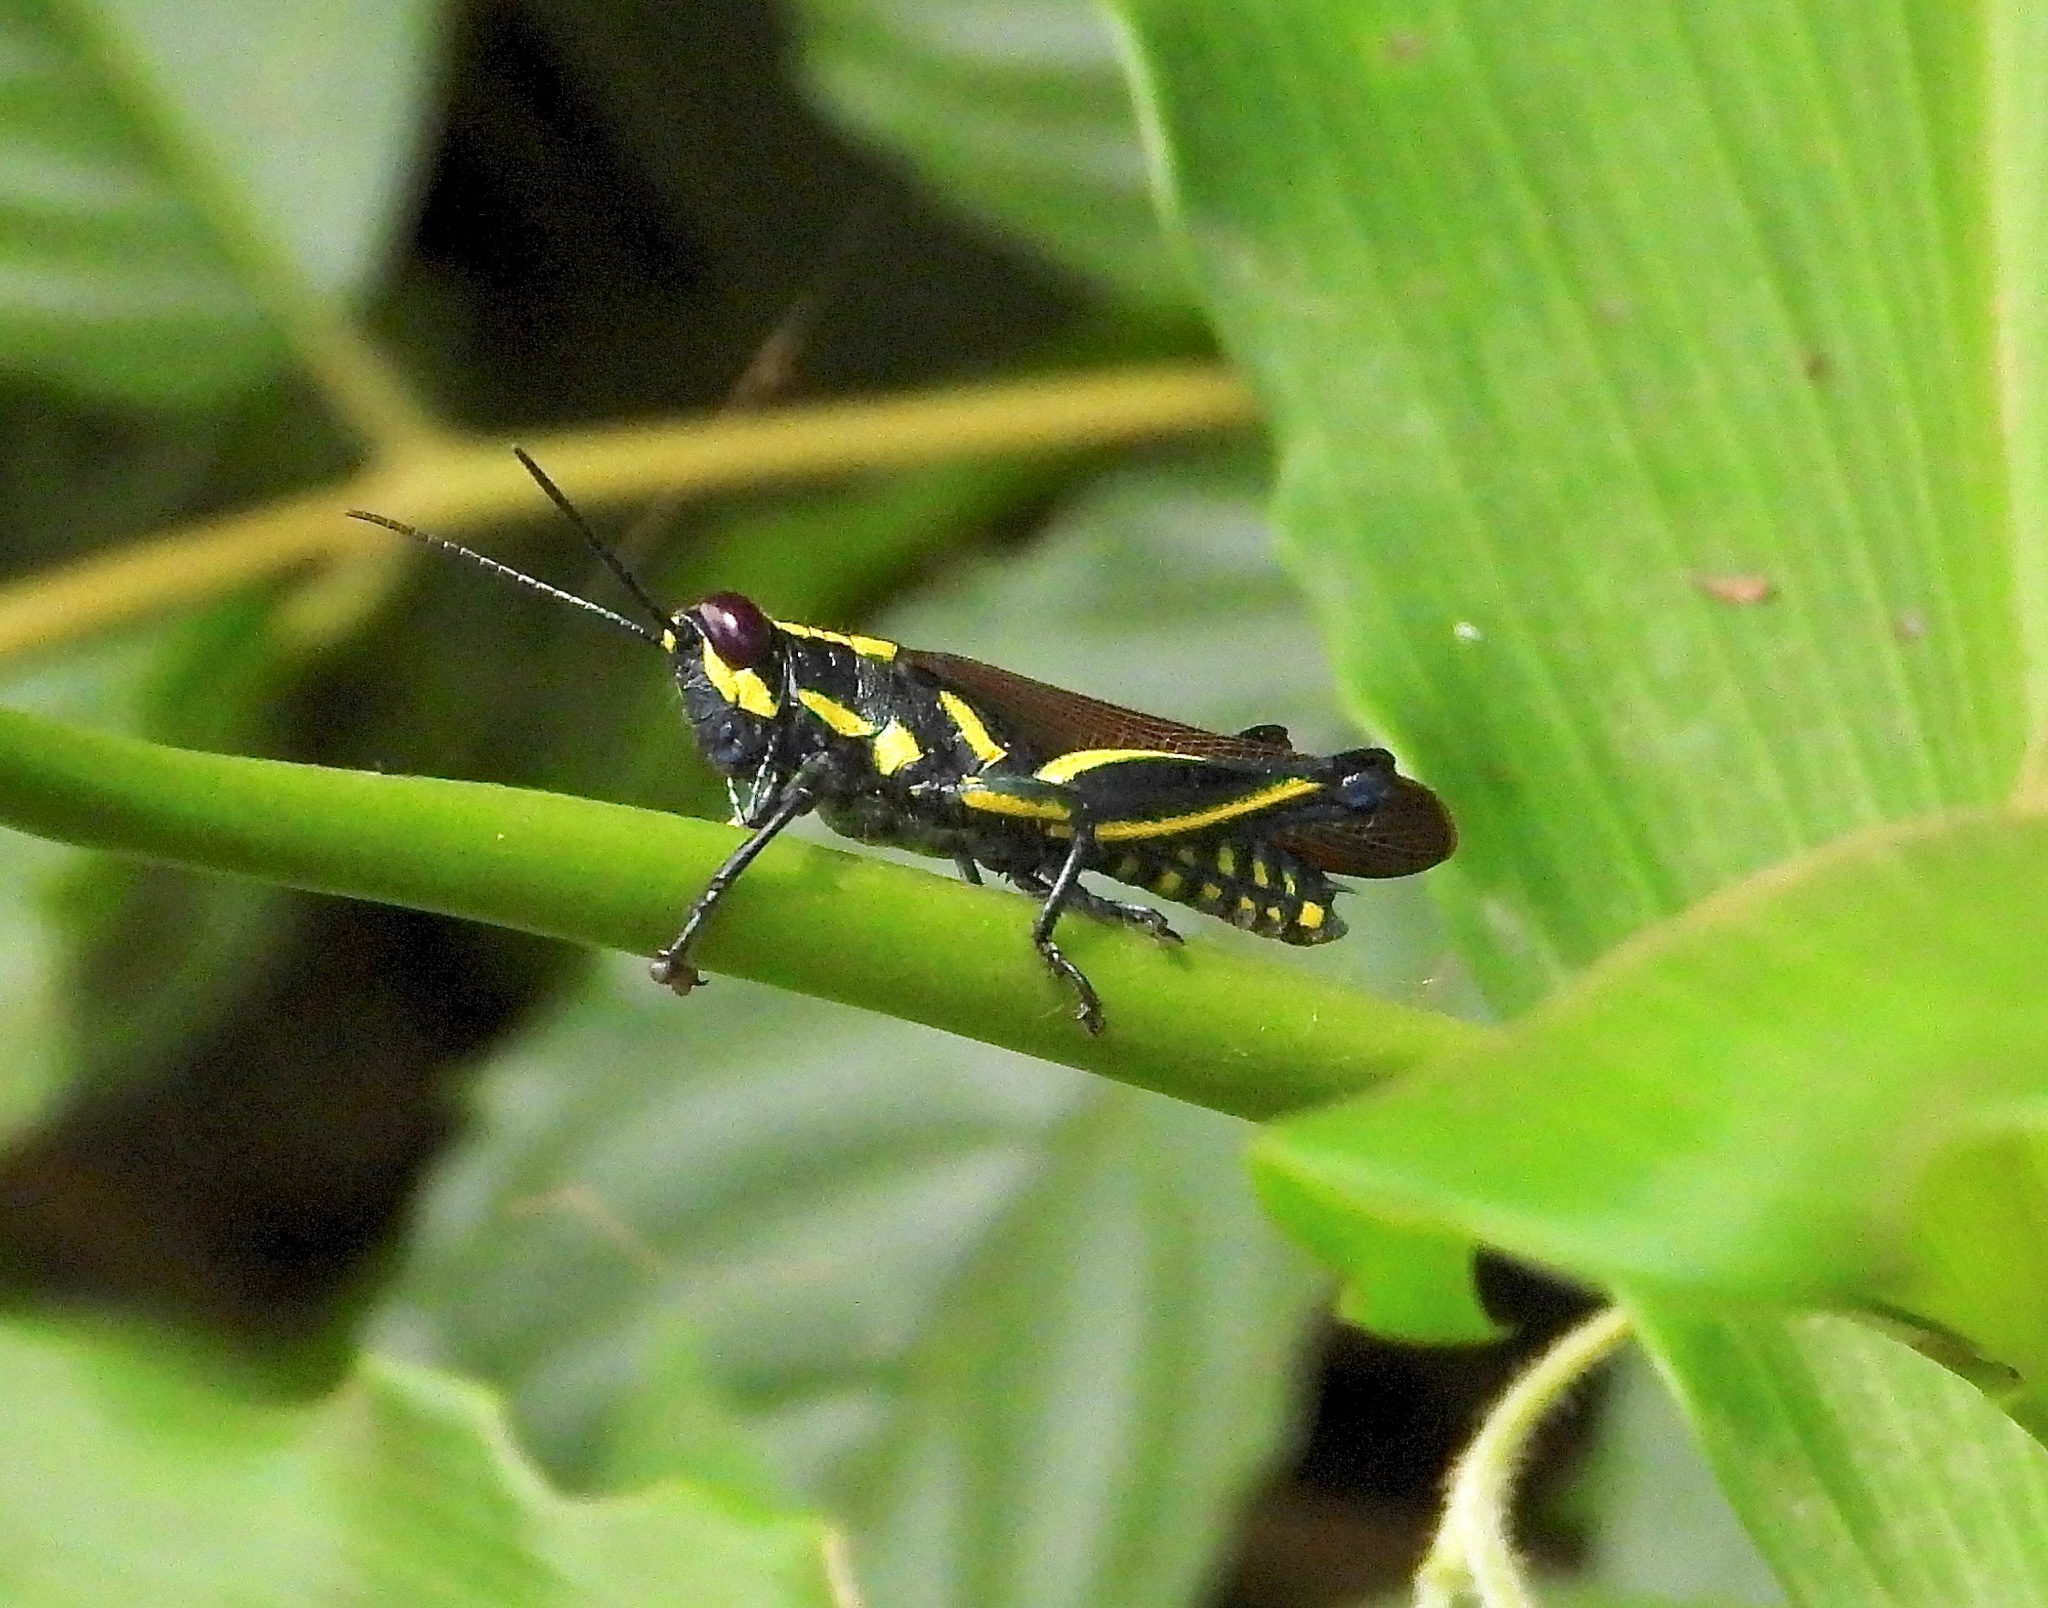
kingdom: Animalia
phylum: Arthropoda
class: Insecta
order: Orthoptera
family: Acrididae
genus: Eupropacris
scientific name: Eupropacris cylindricollis
